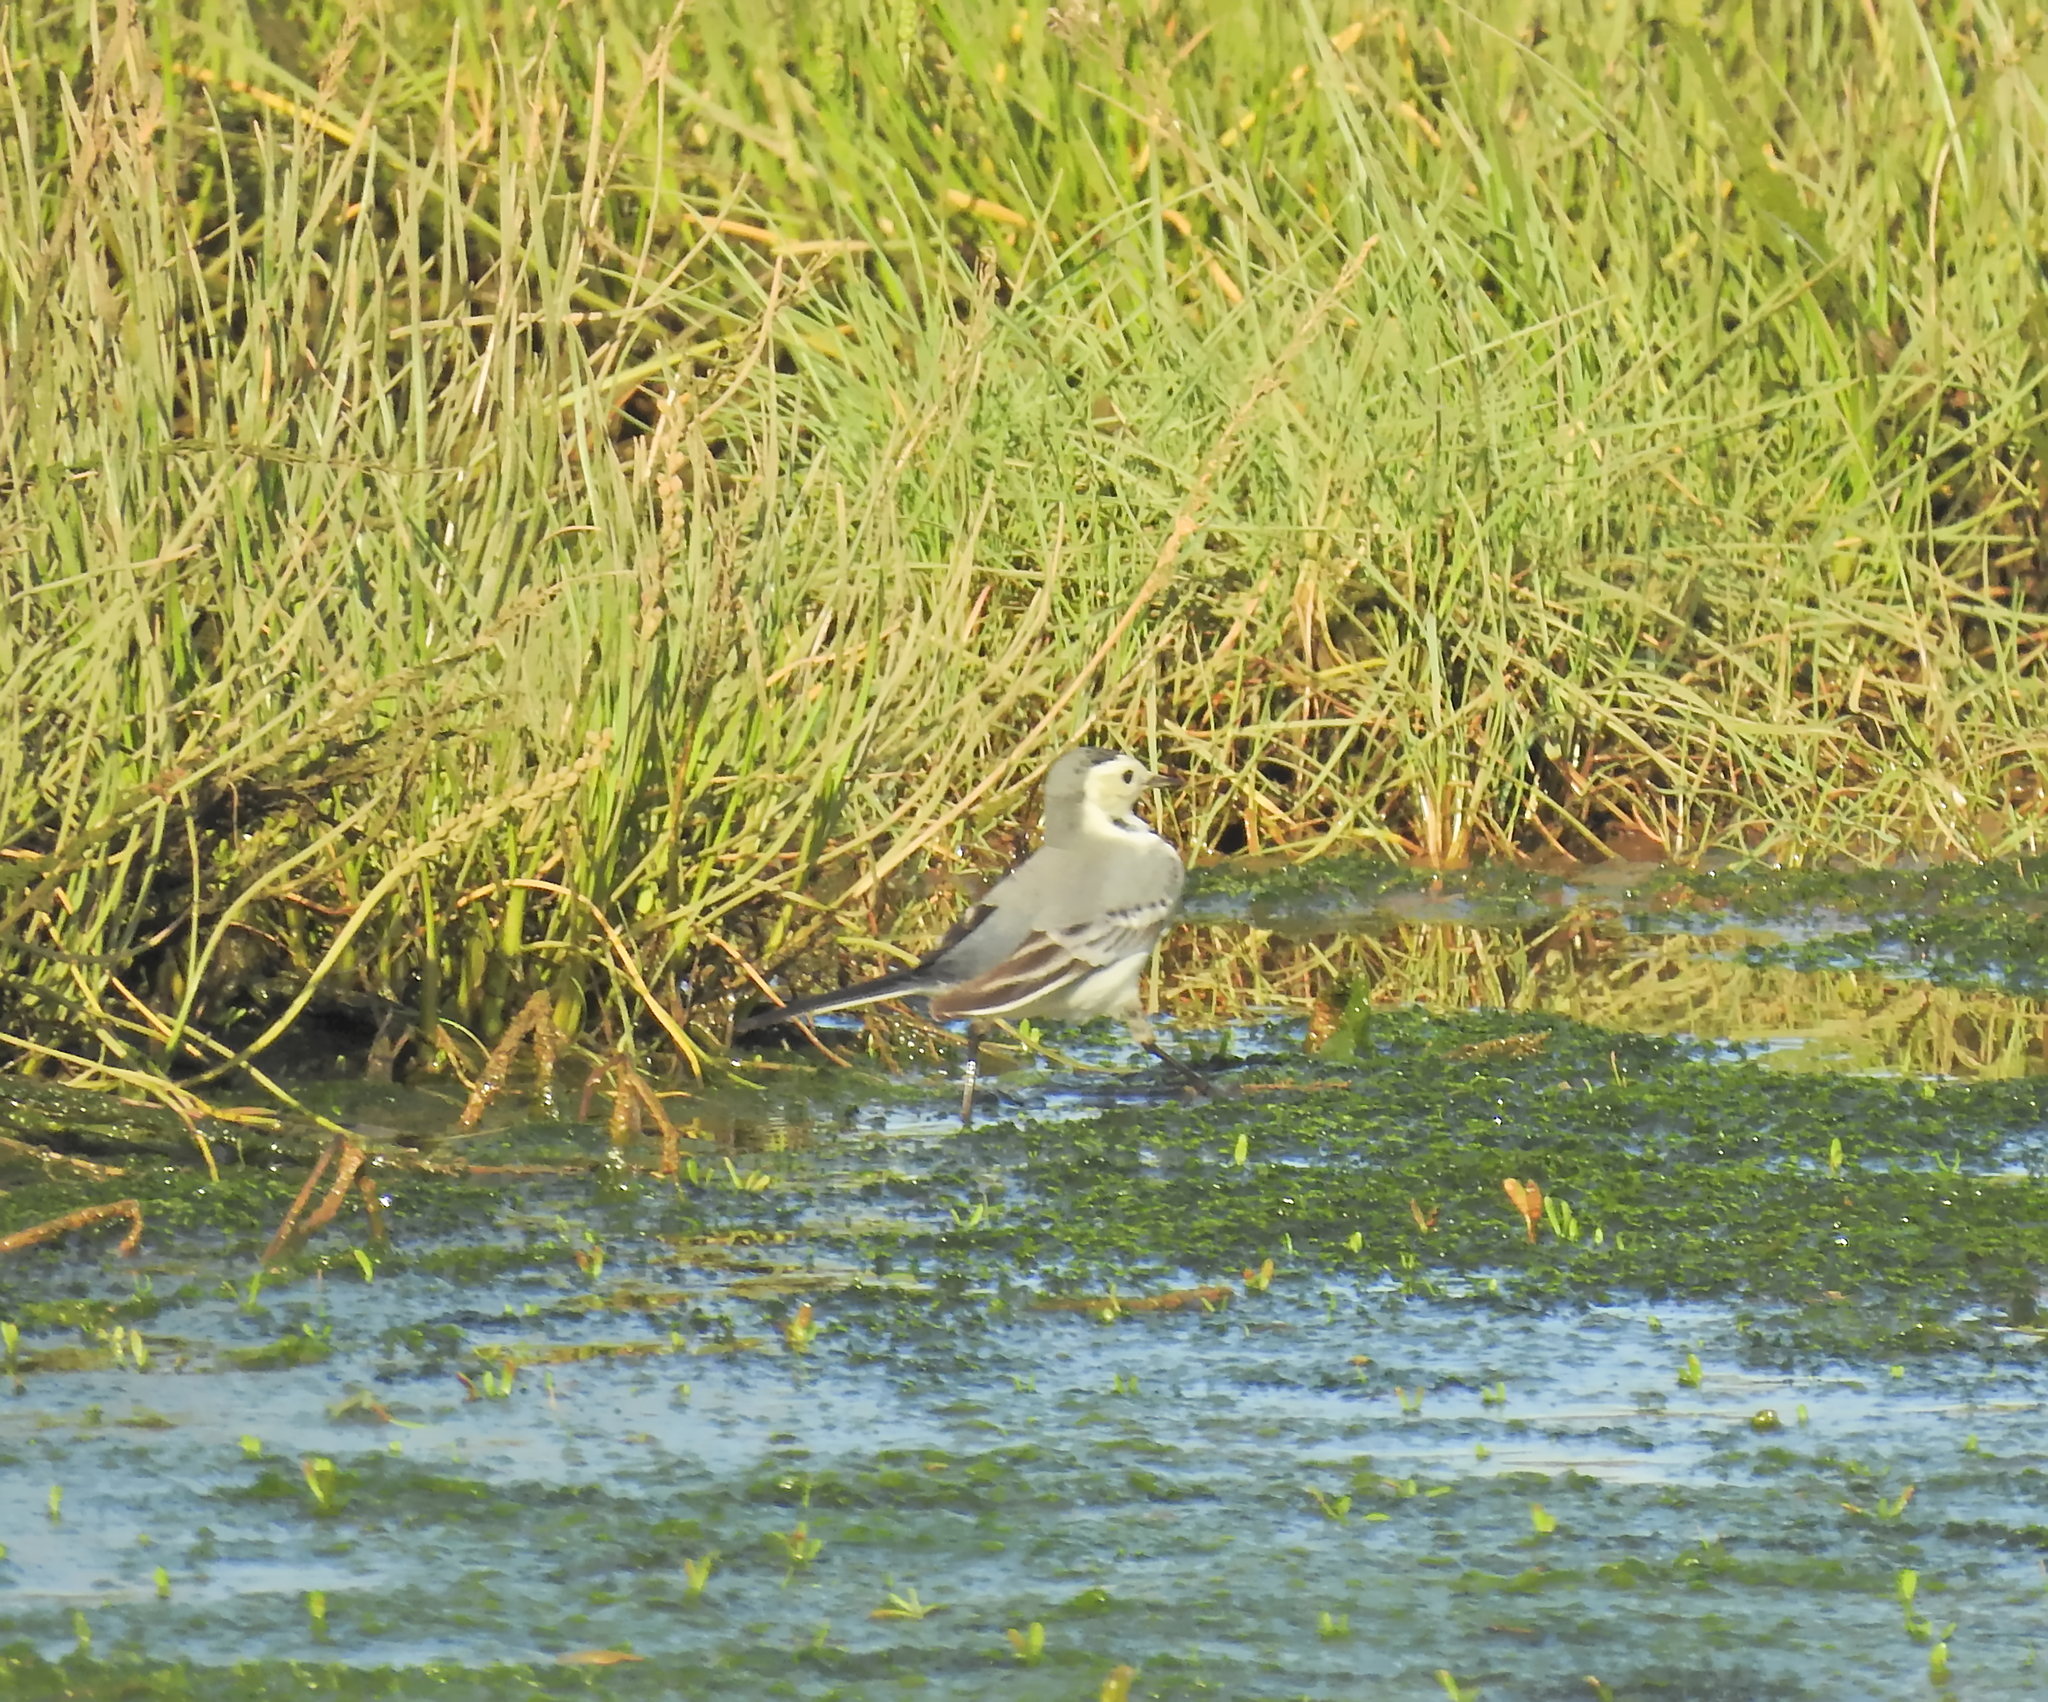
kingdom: Animalia
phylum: Chordata
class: Aves
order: Passeriformes
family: Motacillidae
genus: Motacilla
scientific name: Motacilla alba
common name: White wagtail
